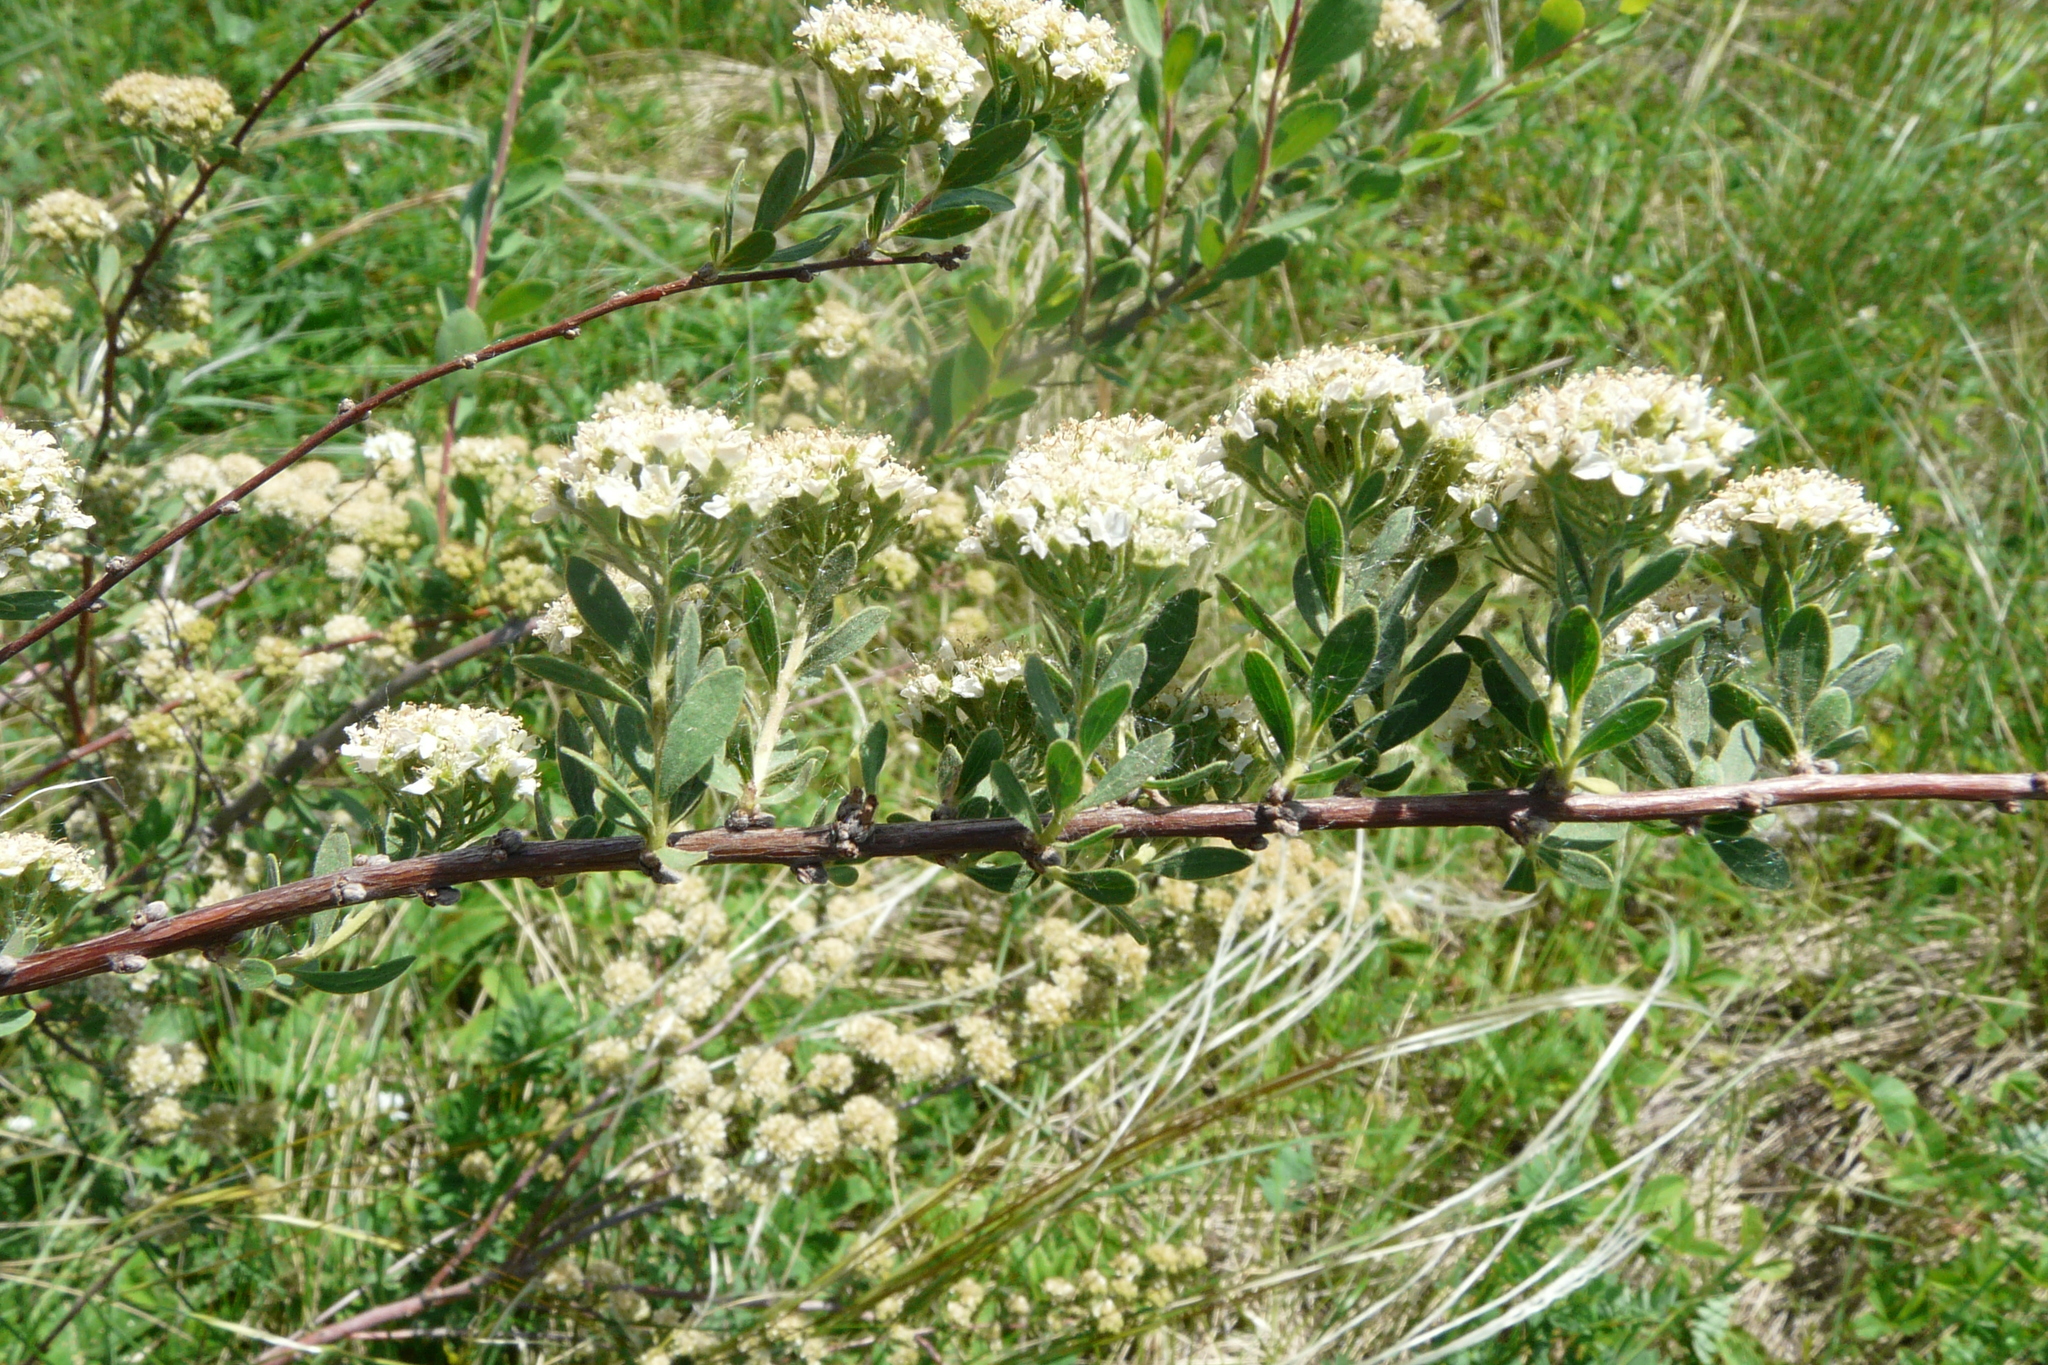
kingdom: Plantae
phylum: Tracheophyta
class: Magnoliopsida
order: Rosales
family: Rosaceae
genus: Spiraea
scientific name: Spiraea crenata
